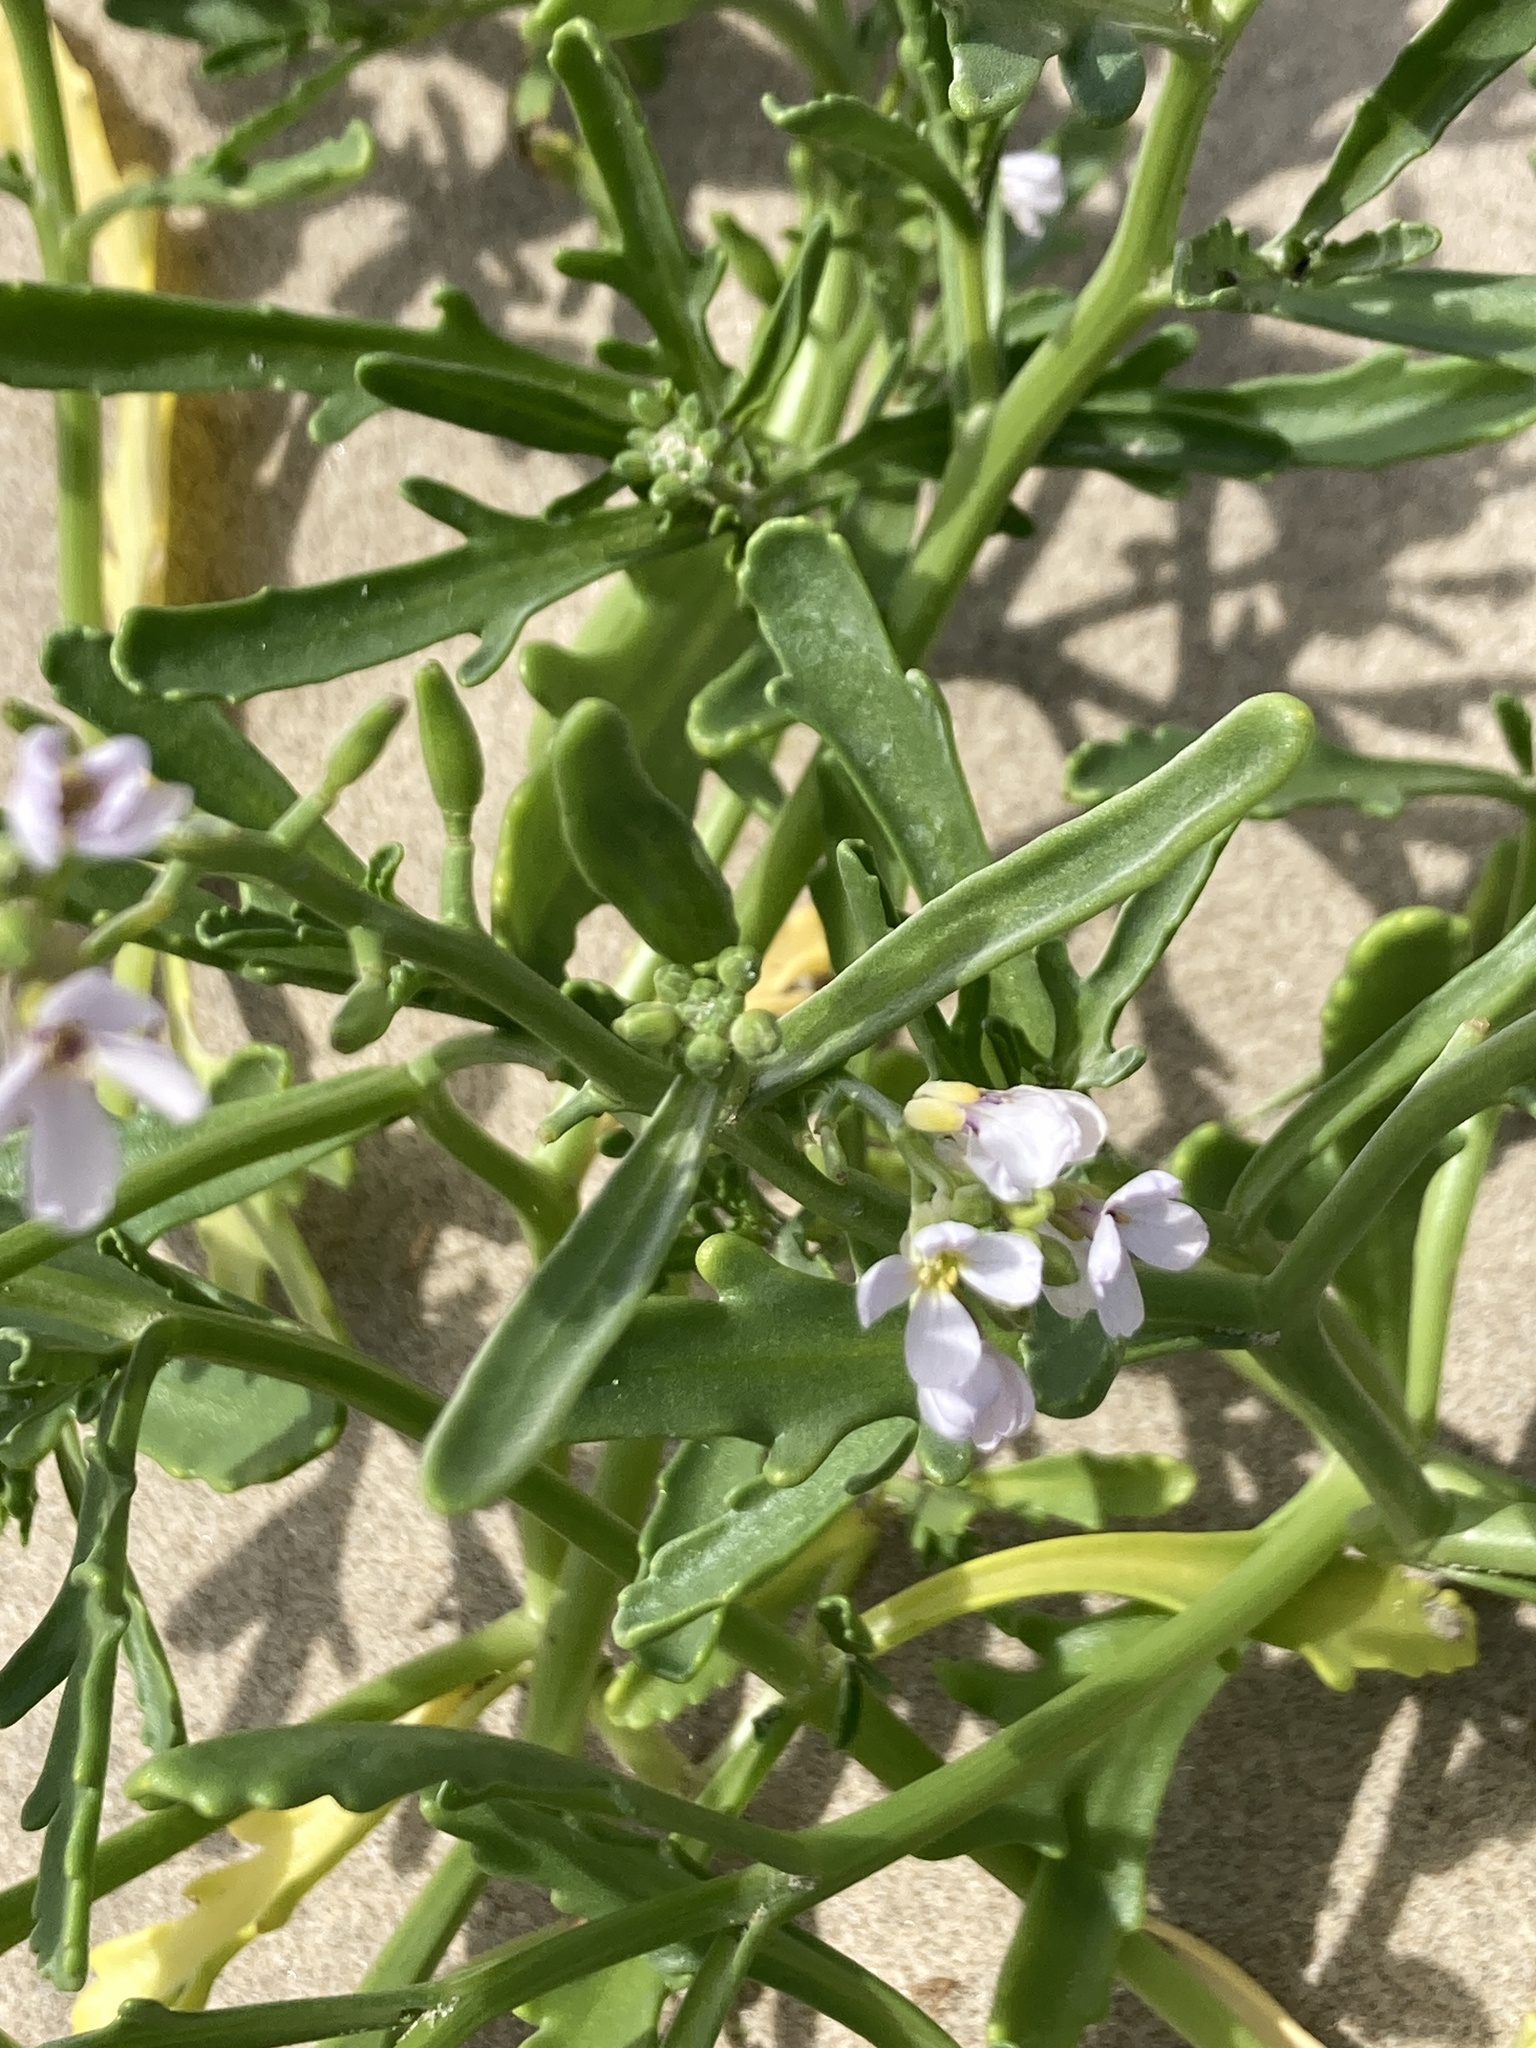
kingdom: Plantae
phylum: Tracheophyta
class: Magnoliopsida
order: Brassicales
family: Brassicaceae
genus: Cakile
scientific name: Cakile maritima
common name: Sea rocket
